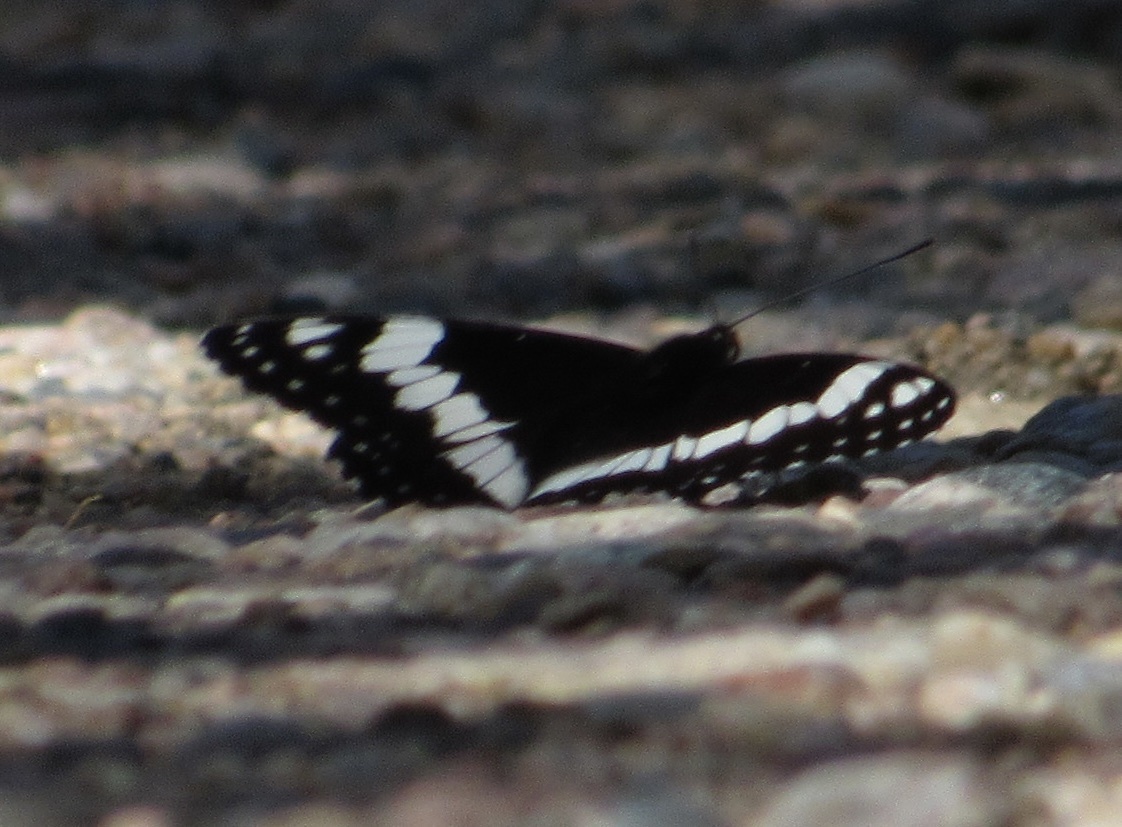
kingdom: Animalia
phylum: Arthropoda
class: Insecta
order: Lepidoptera
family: Nymphalidae
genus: Limenitis
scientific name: Limenitis weidemeyerii
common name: Weidemeyer's admiral
